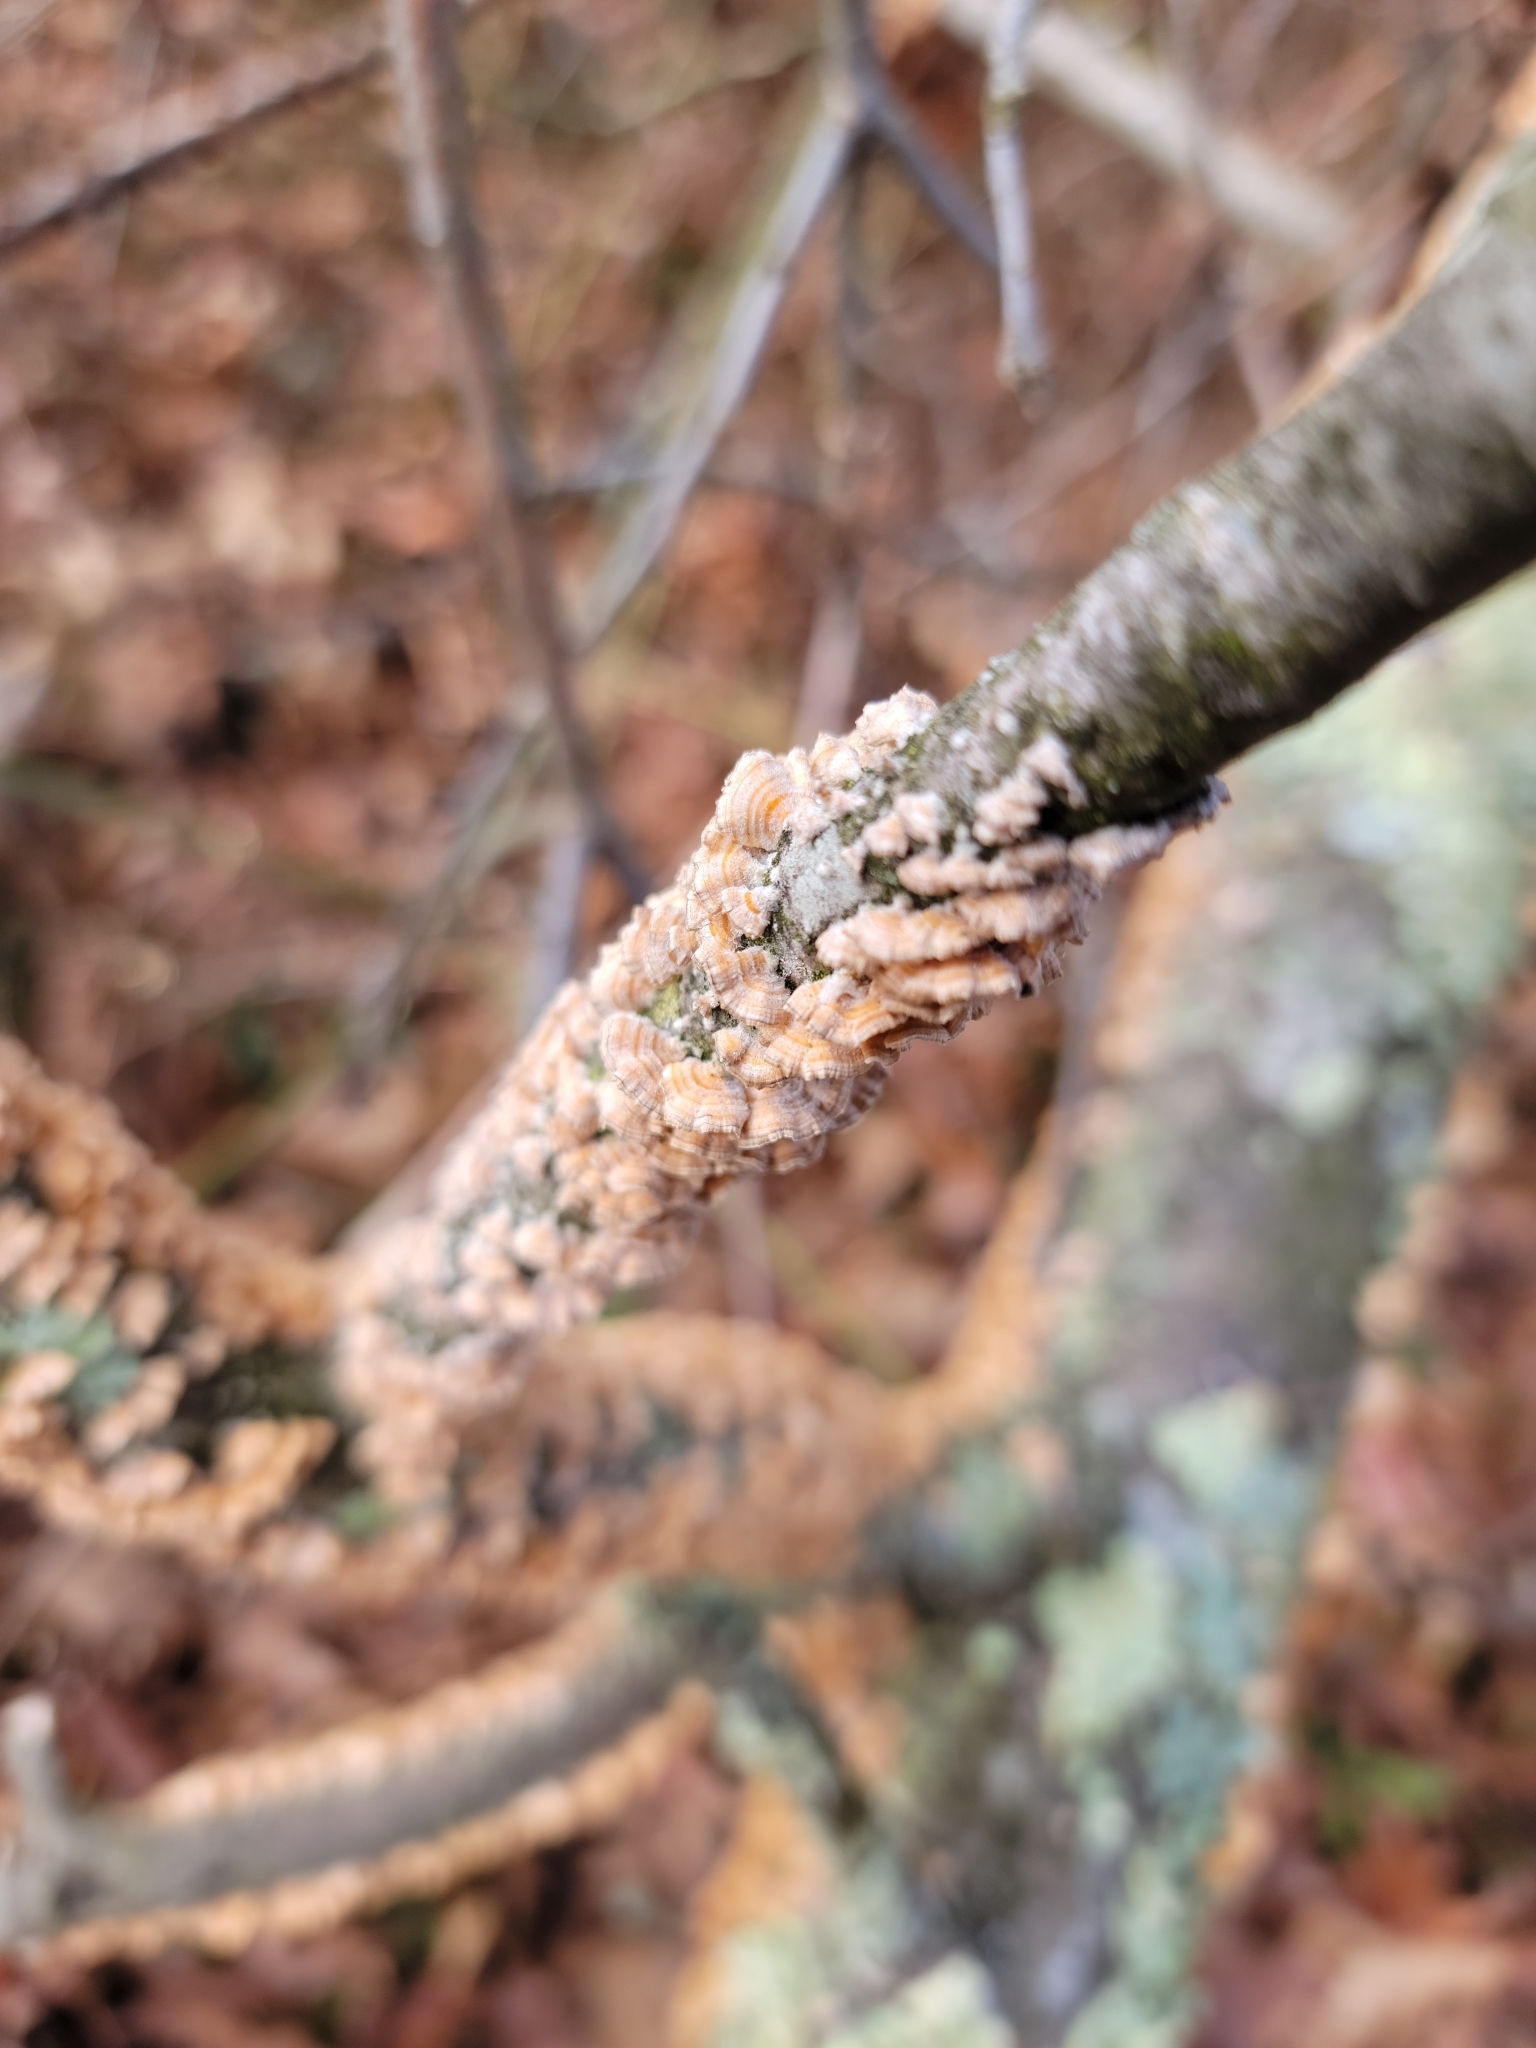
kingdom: Fungi
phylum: Basidiomycota
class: Agaricomycetes
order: Russulales
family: Stereaceae
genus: Stereum
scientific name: Stereum complicatum
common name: Crowded parchment
